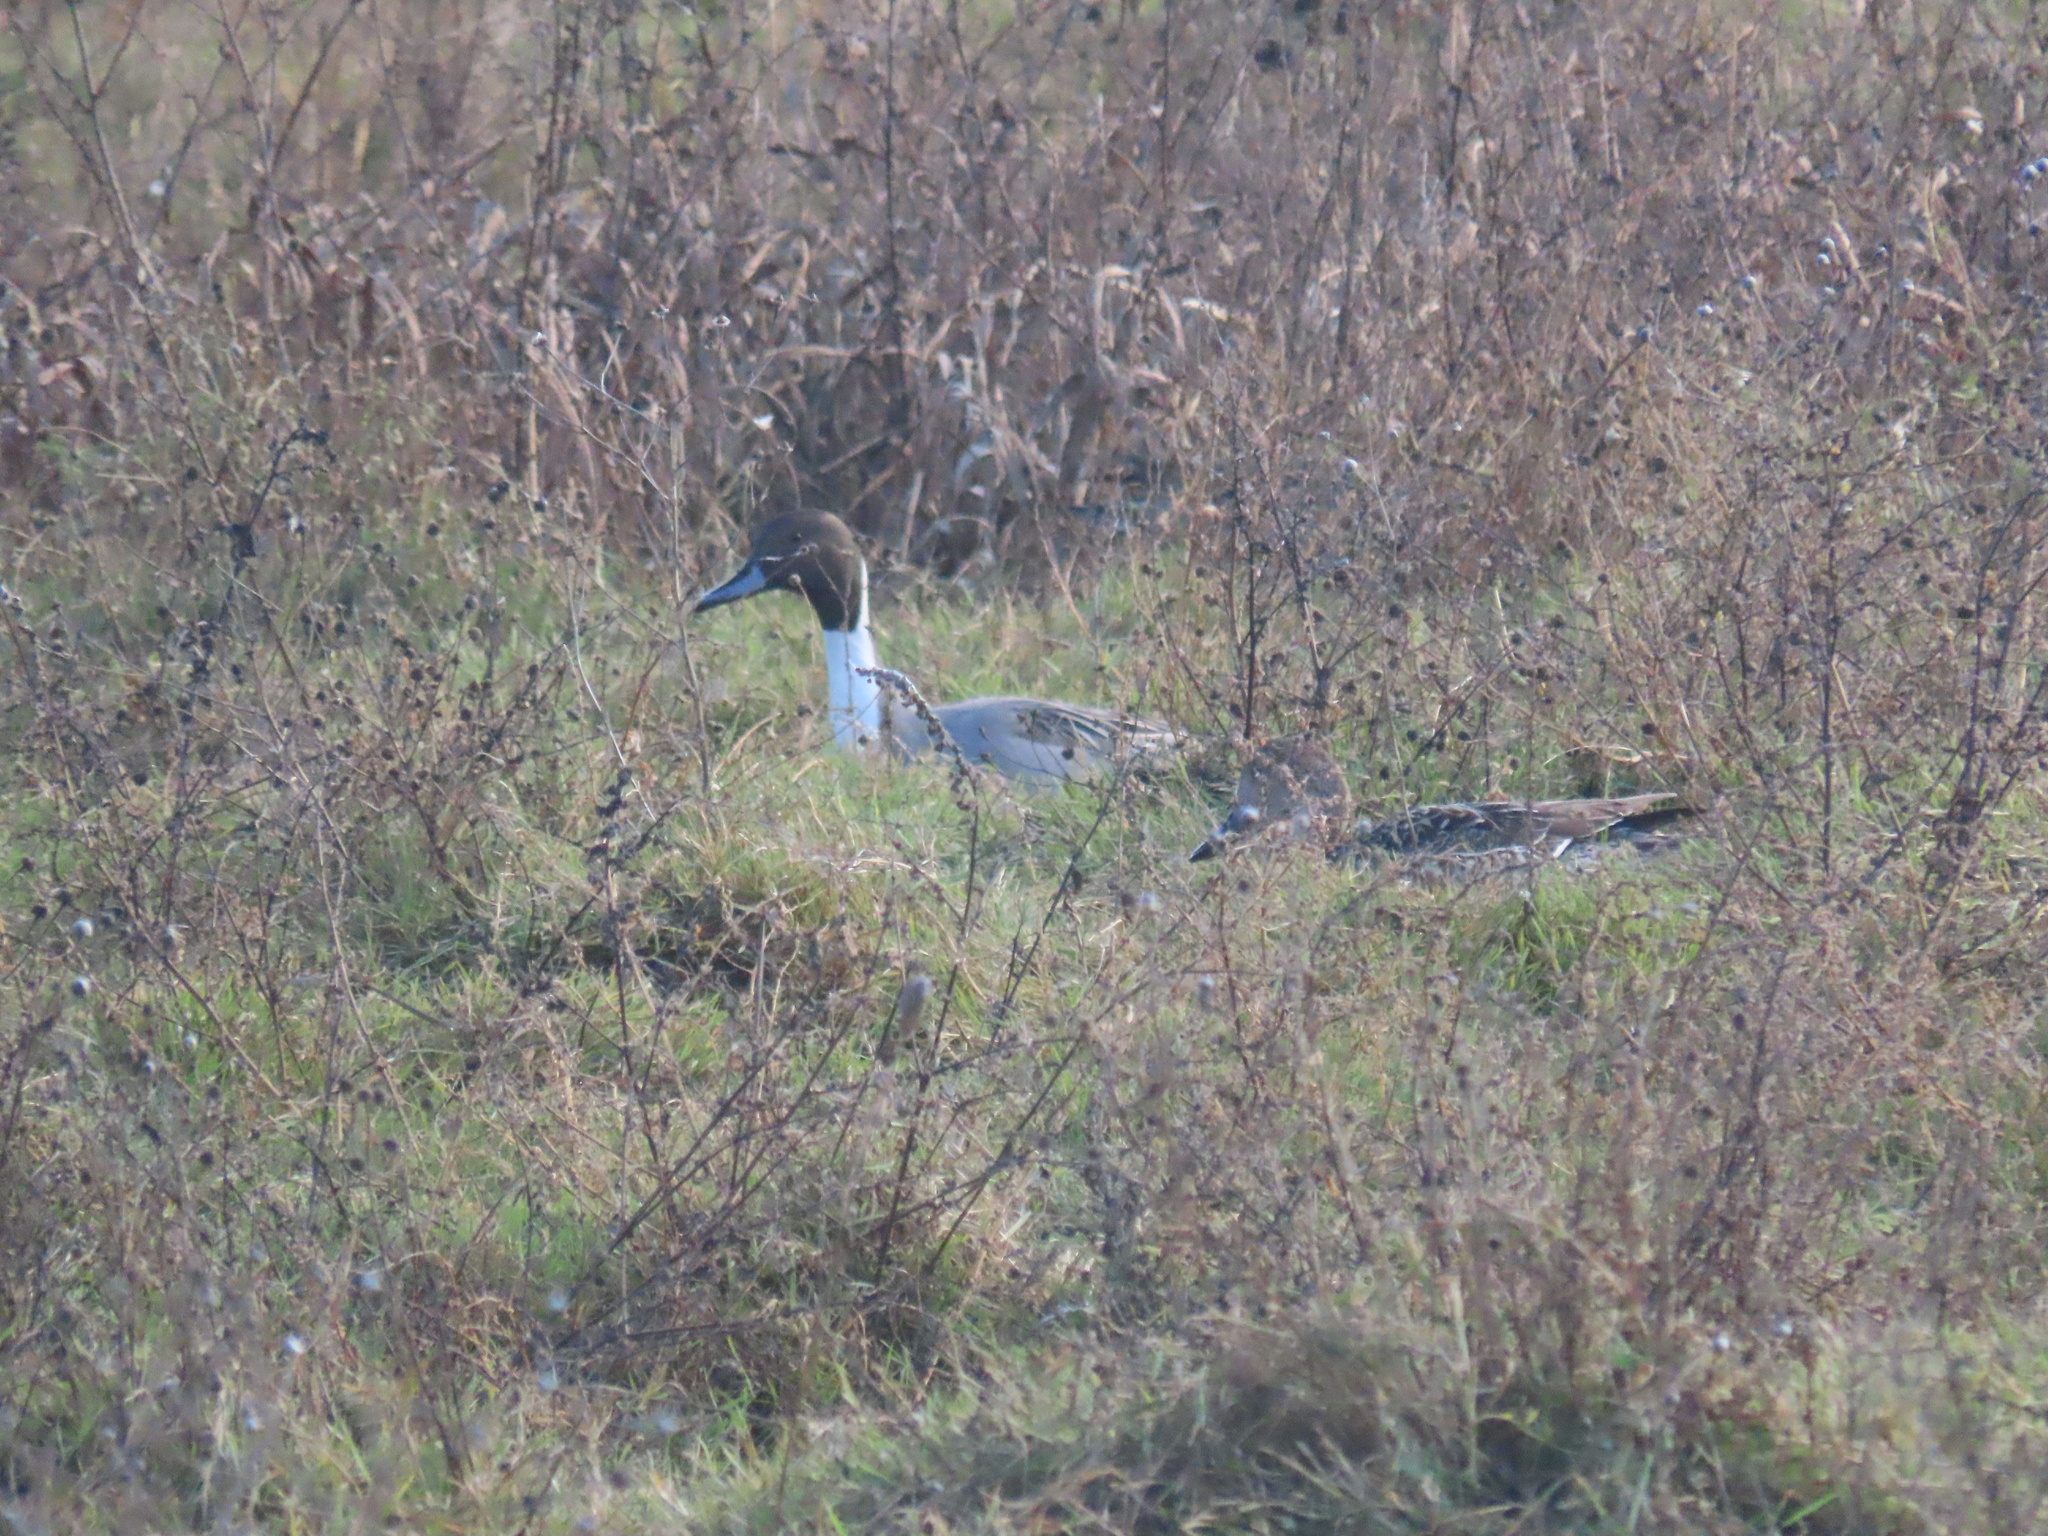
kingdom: Animalia
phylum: Chordata
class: Aves
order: Anseriformes
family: Anatidae
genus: Anas
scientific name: Anas acuta
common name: Northern pintail
